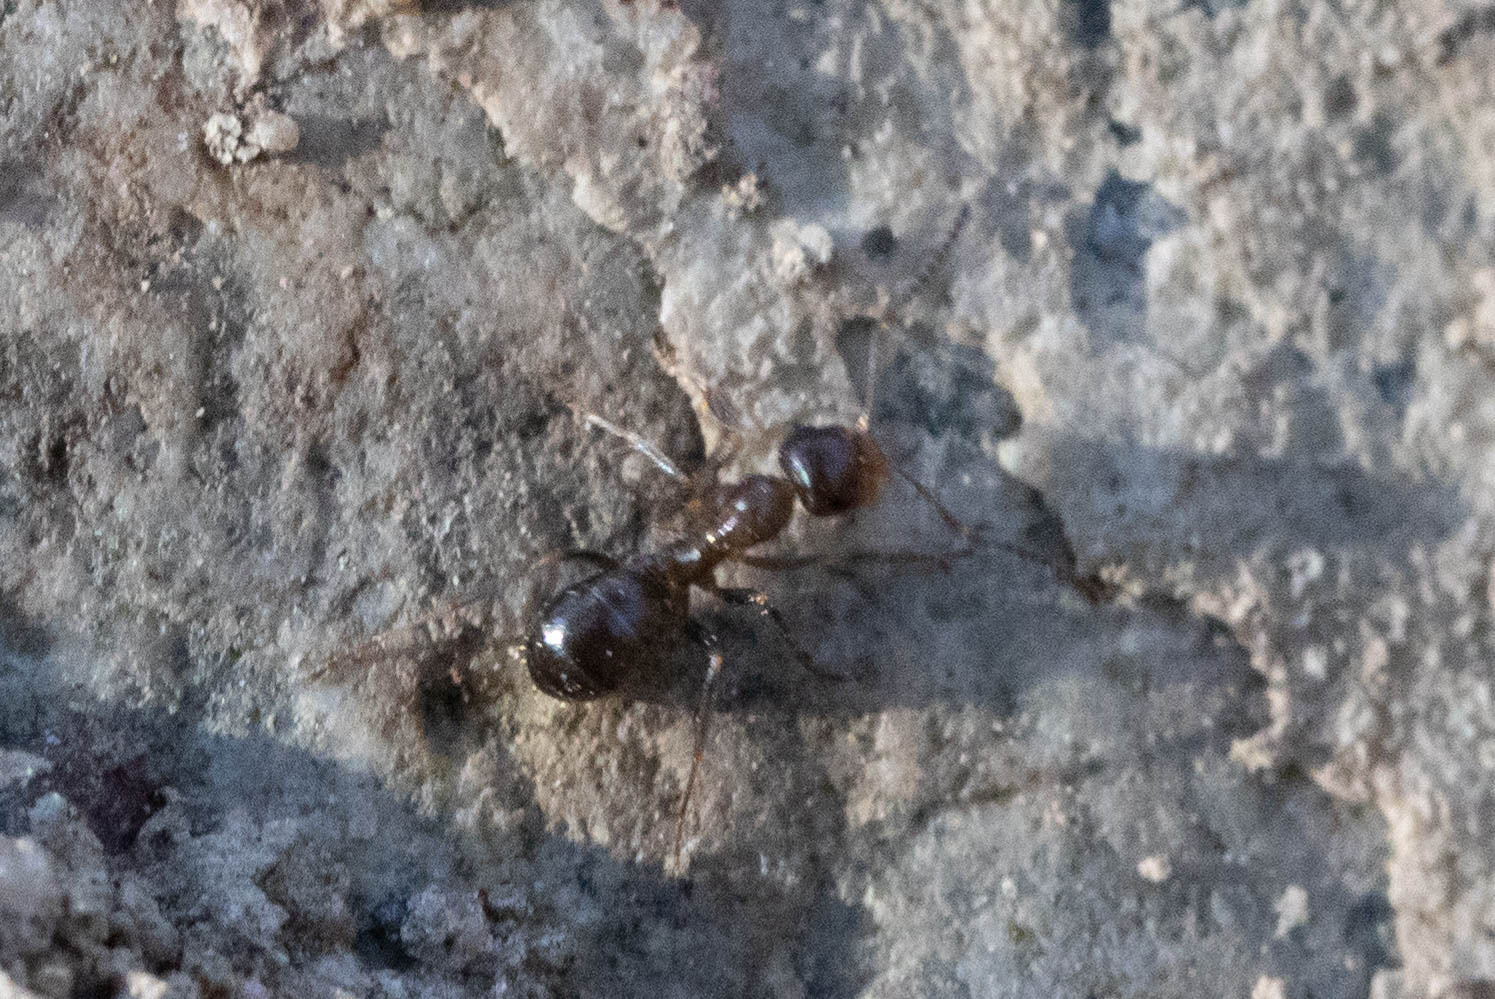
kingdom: Animalia
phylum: Arthropoda
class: Insecta
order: Hymenoptera
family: Formicidae
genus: Formica
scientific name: Formica subpolita
